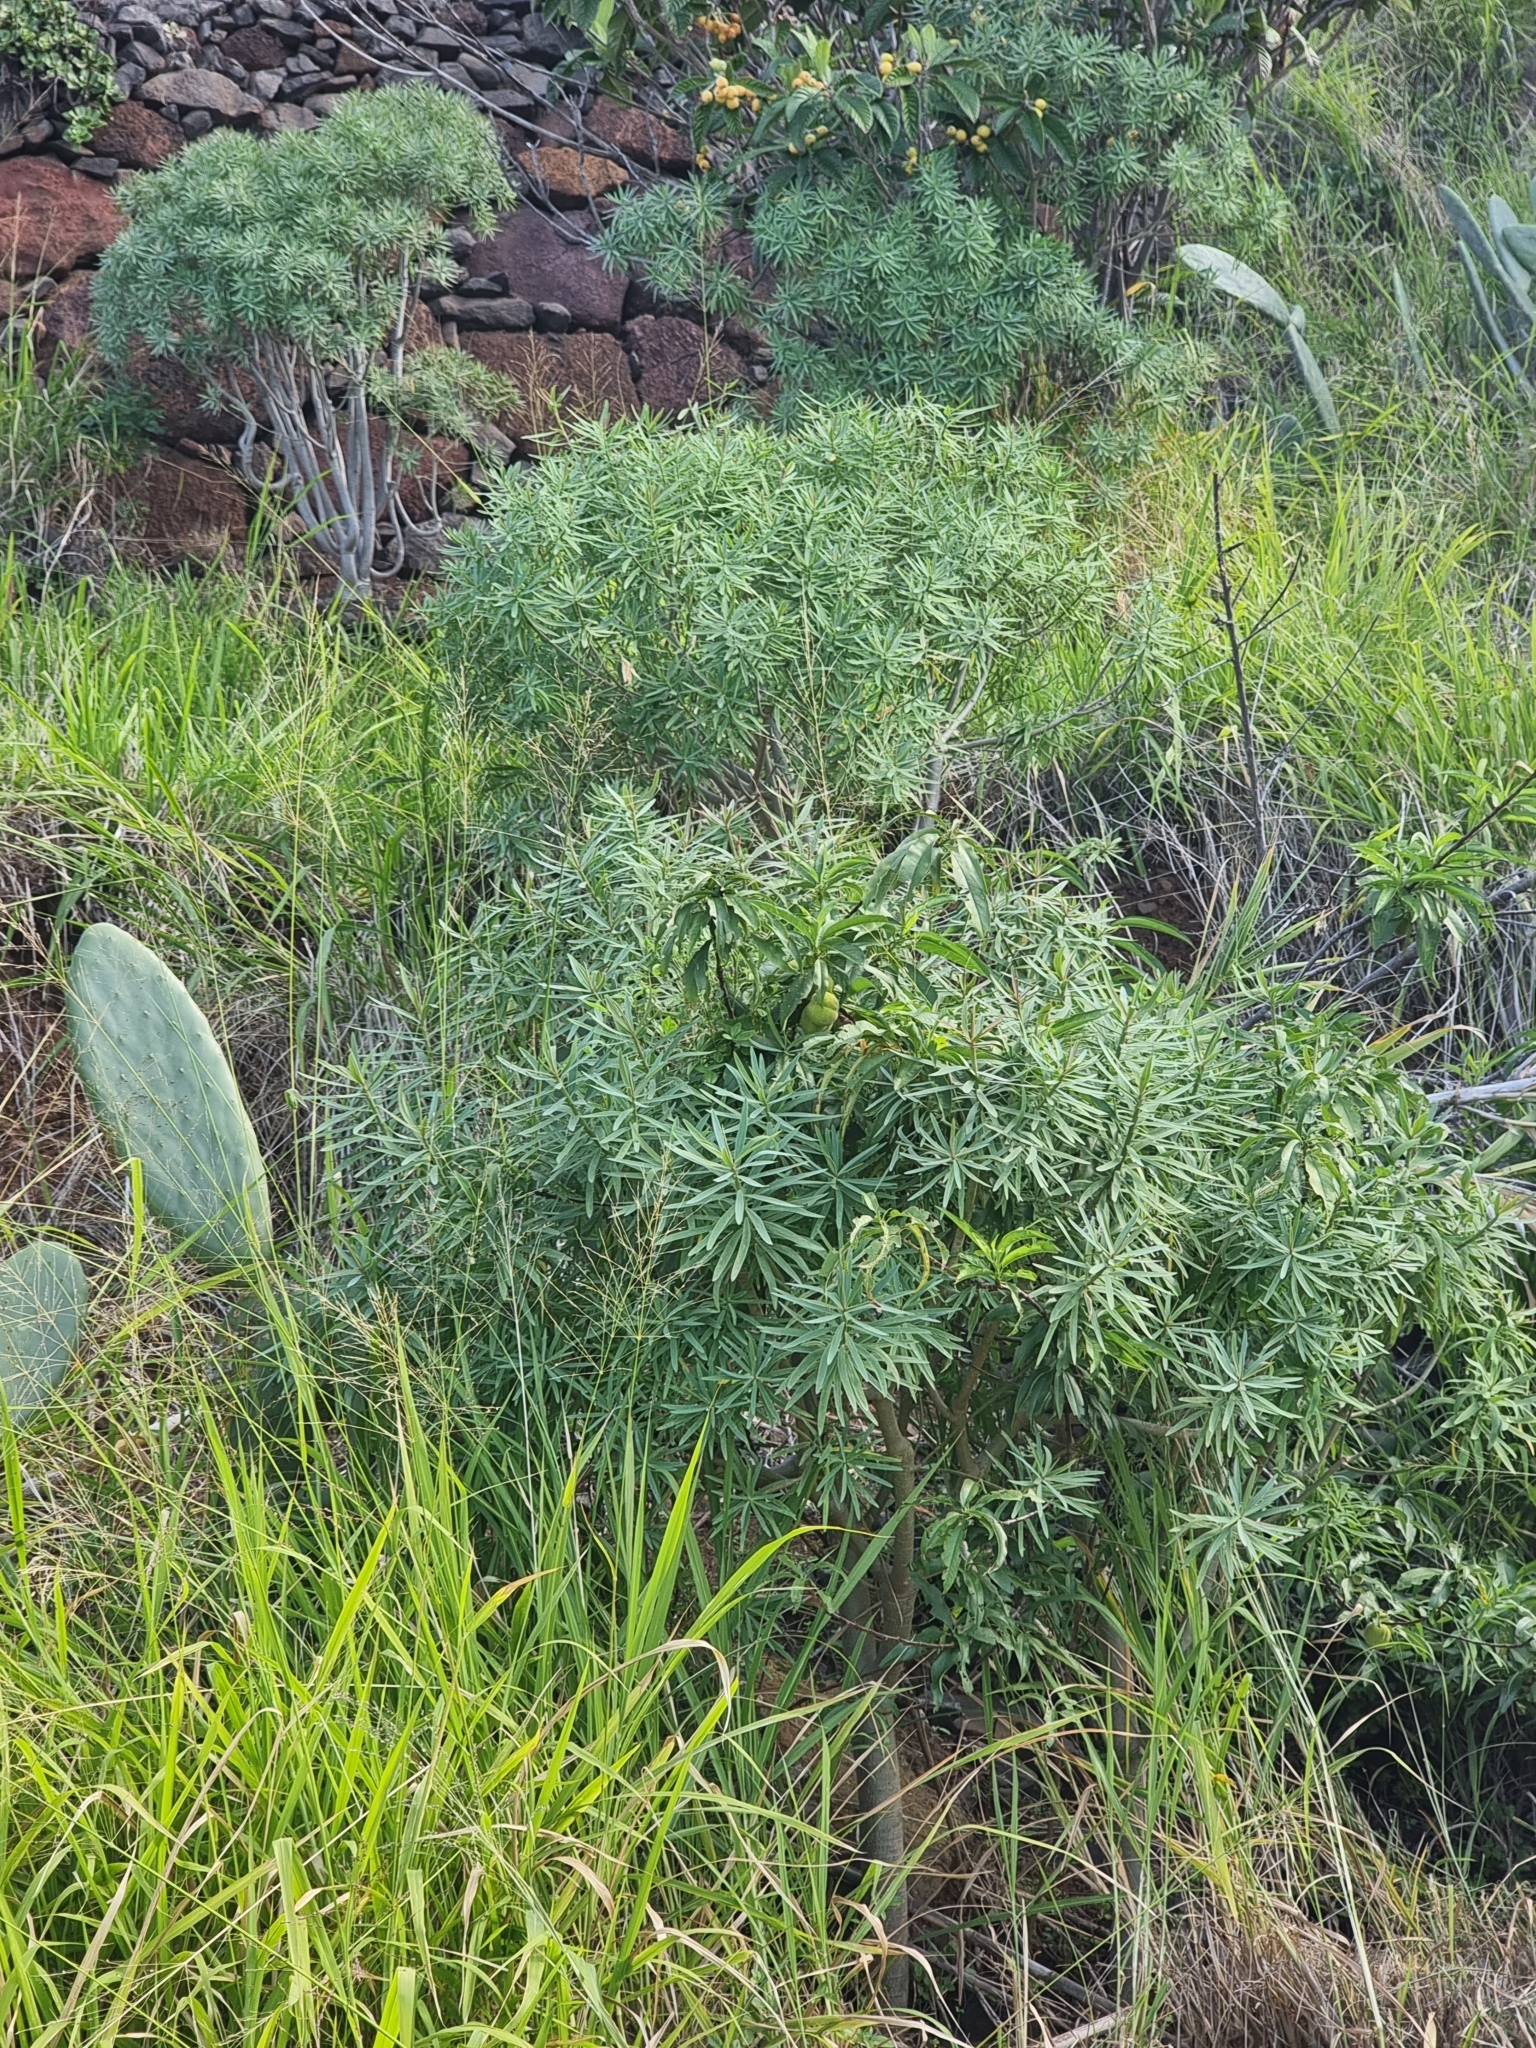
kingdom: Plantae
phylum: Tracheophyta
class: Magnoliopsida
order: Malpighiales
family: Euphorbiaceae
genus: Euphorbia
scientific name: Euphorbia piscatoria
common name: Fish-stunning spurge
